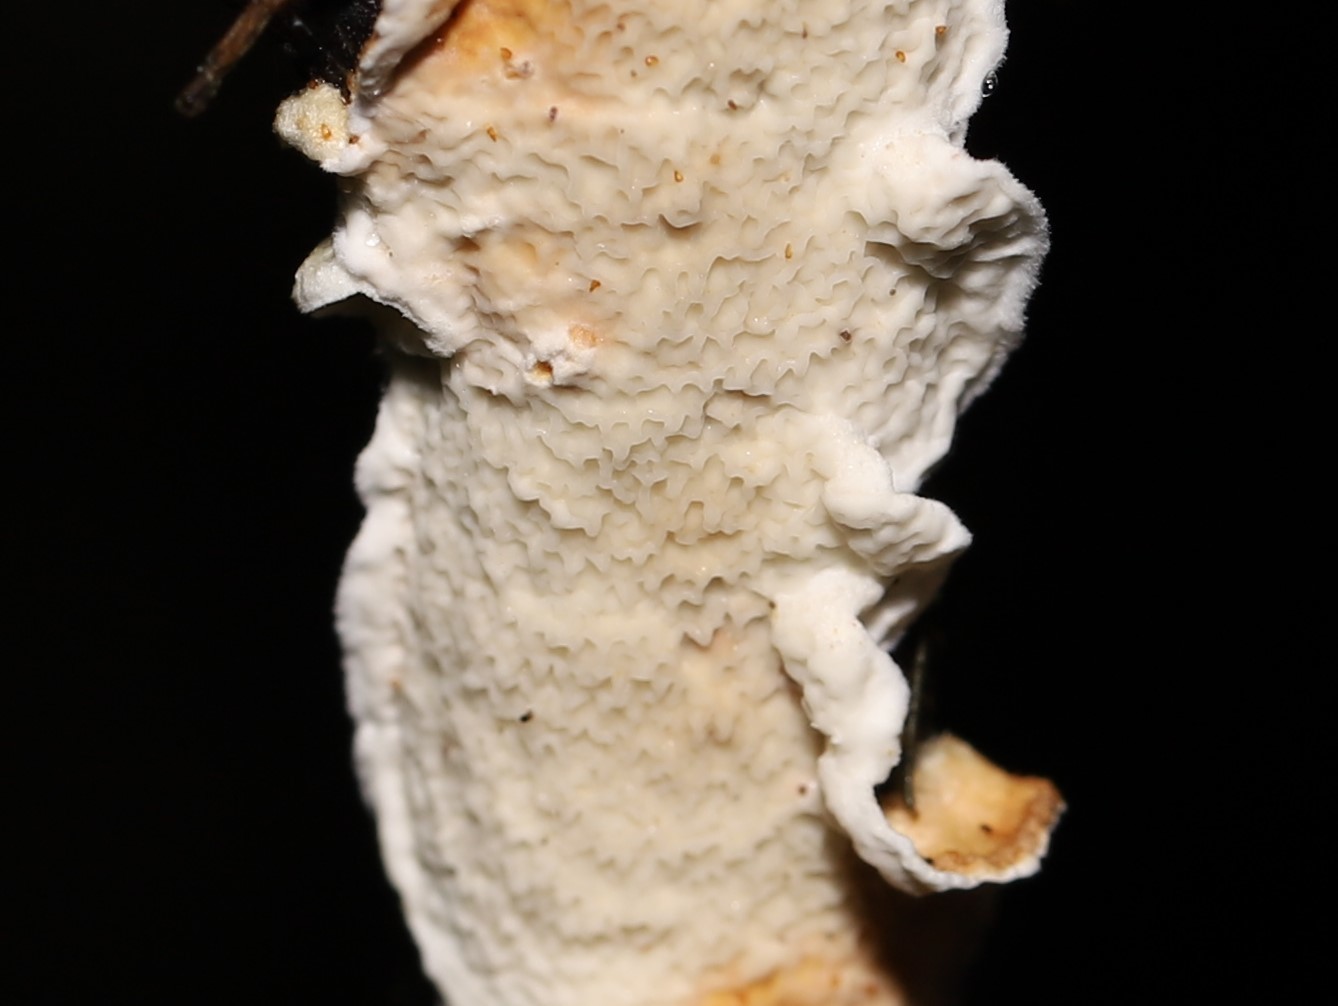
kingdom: Fungi
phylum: Basidiomycota
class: Agaricomycetes
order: Polyporales
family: Irpicaceae
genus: Byssomerulius
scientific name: Byssomerulius corium
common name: Netted crust
